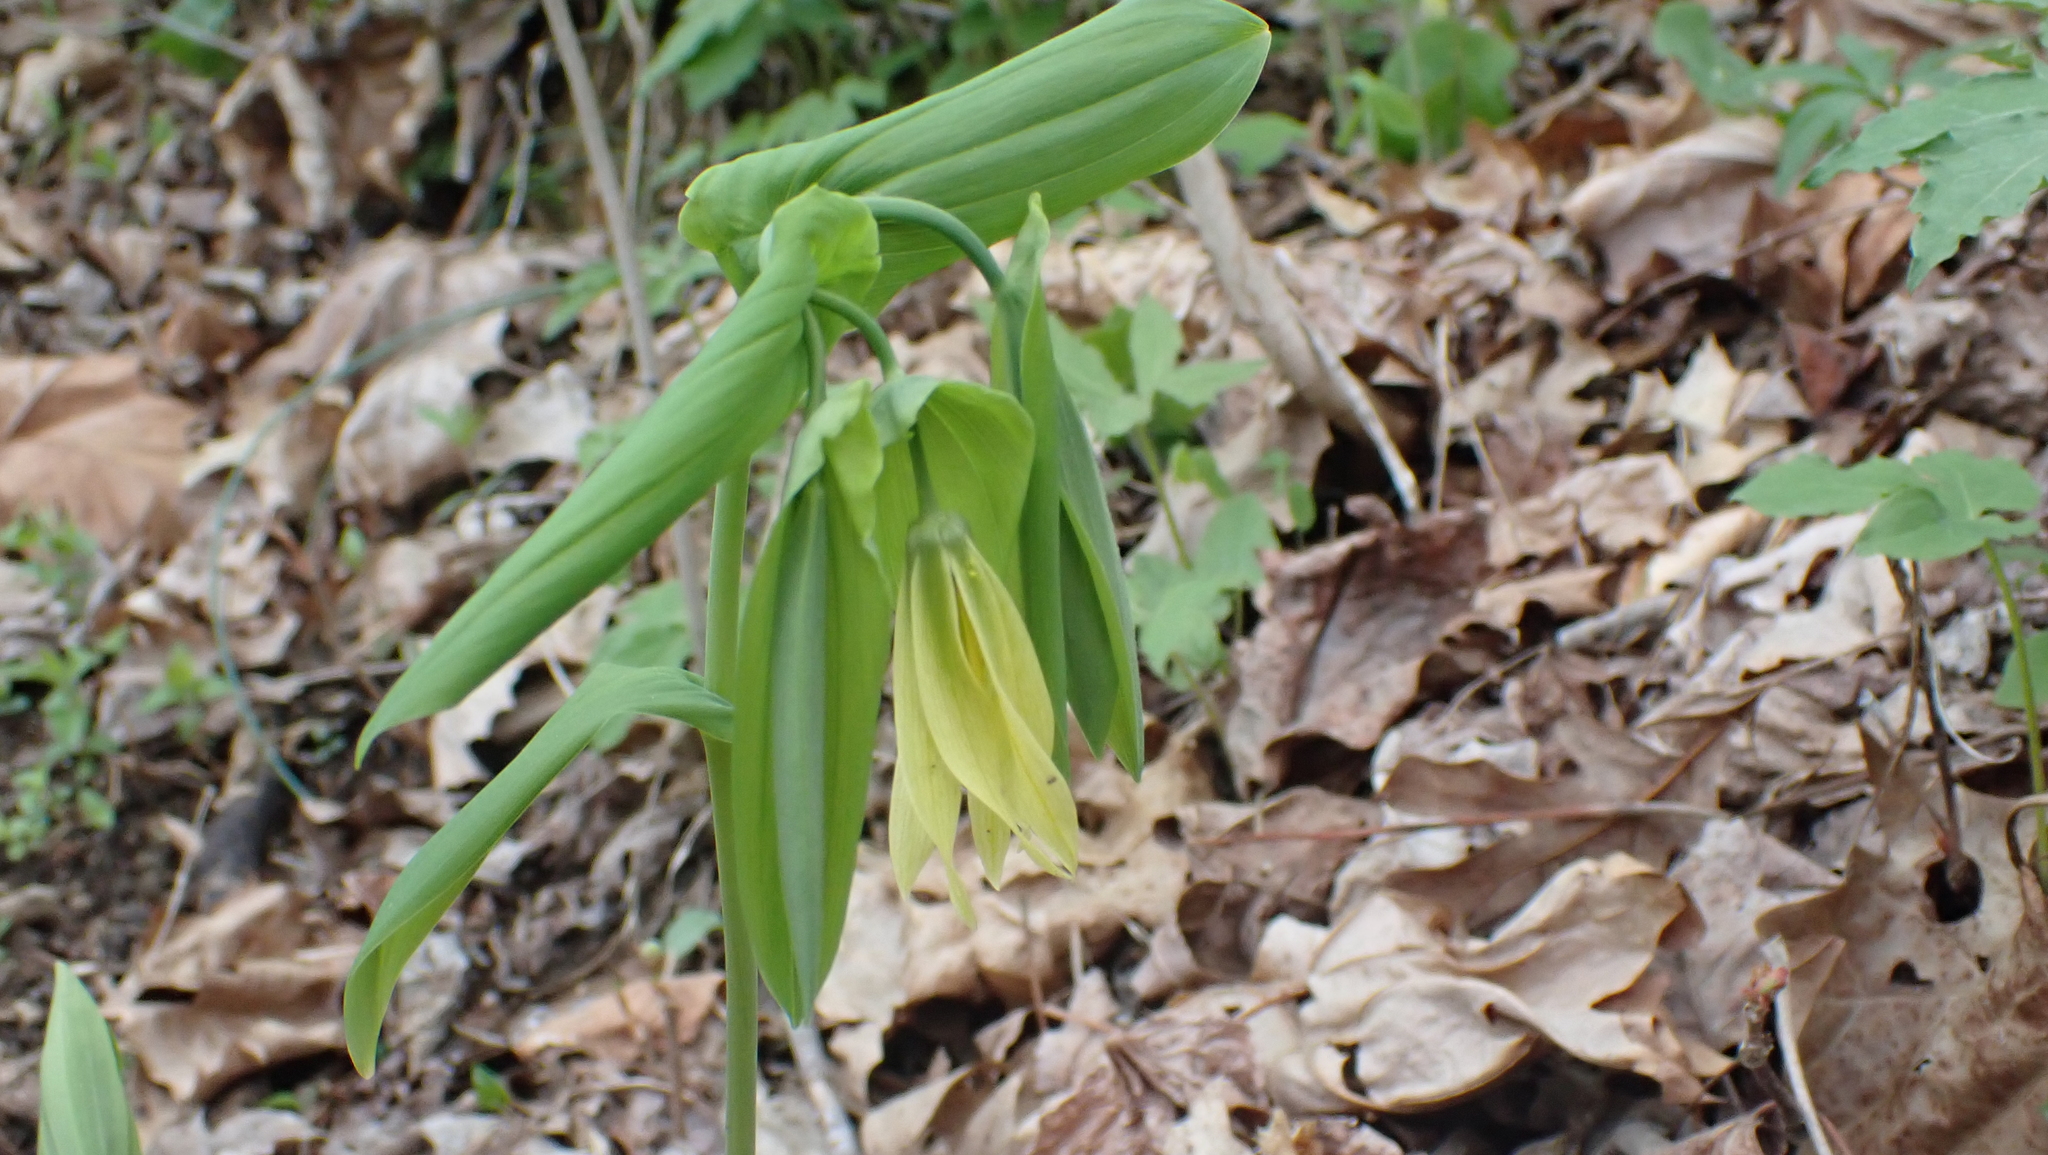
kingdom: Plantae
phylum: Tracheophyta
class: Liliopsida
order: Liliales
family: Colchicaceae
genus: Uvularia
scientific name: Uvularia grandiflora
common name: Bellwort
